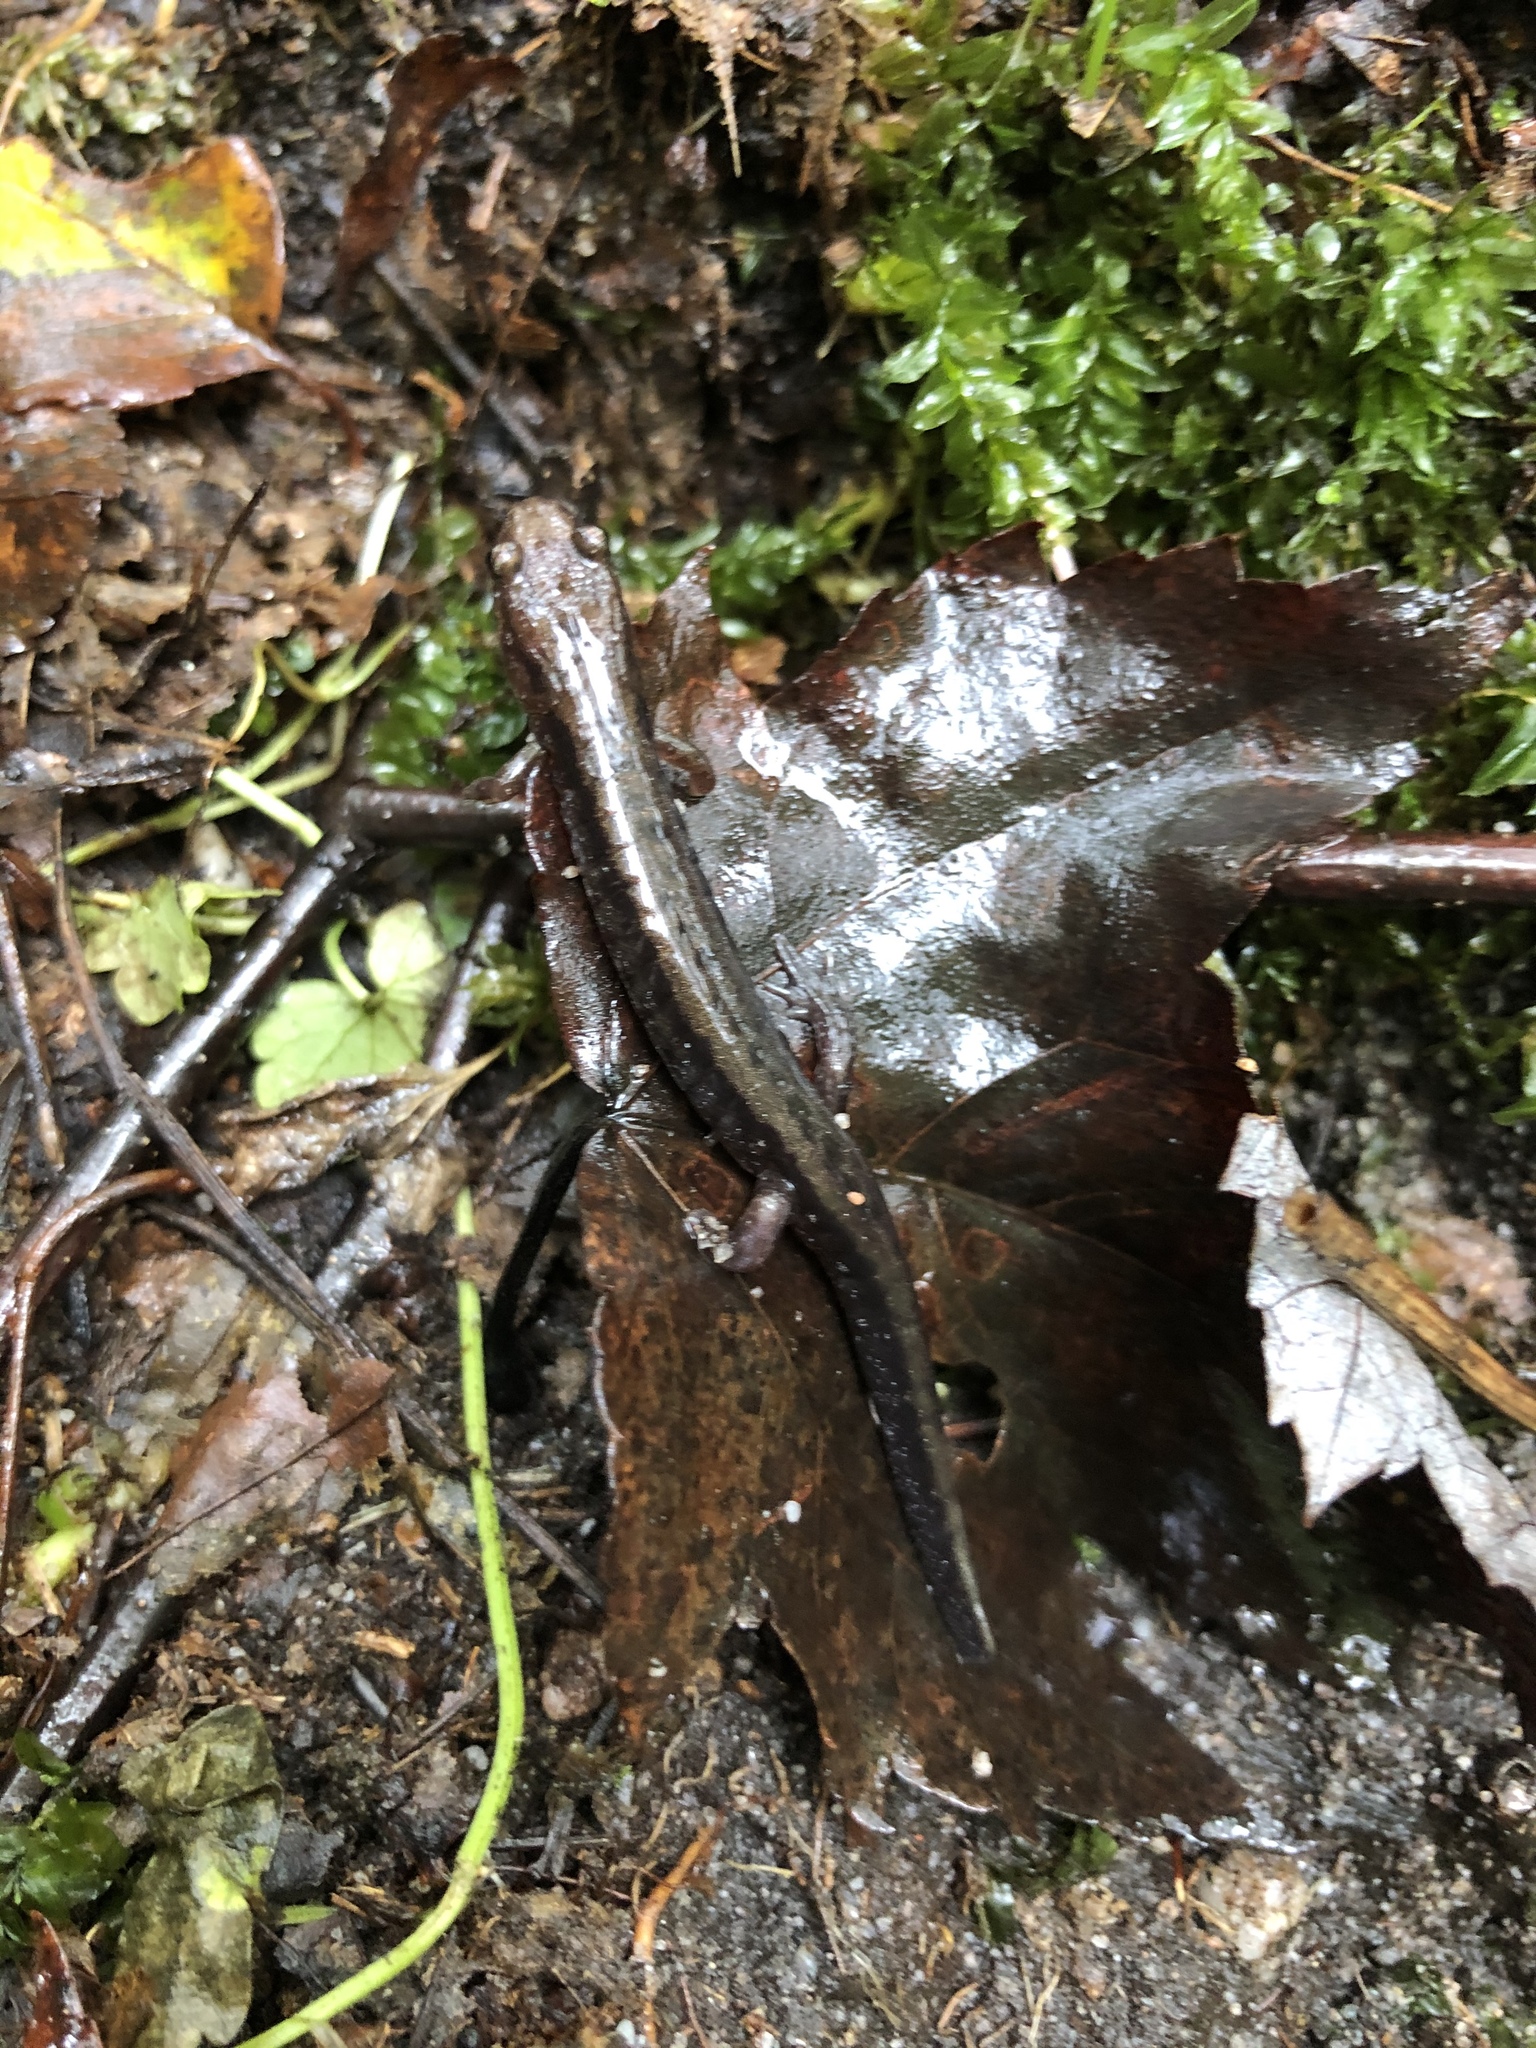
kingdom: Animalia
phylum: Chordata
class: Amphibia
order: Caudata
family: Plethodontidae
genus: Desmognathus
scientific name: Desmognathus ochrophaeus
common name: Allegheny mountain dusky salamander
